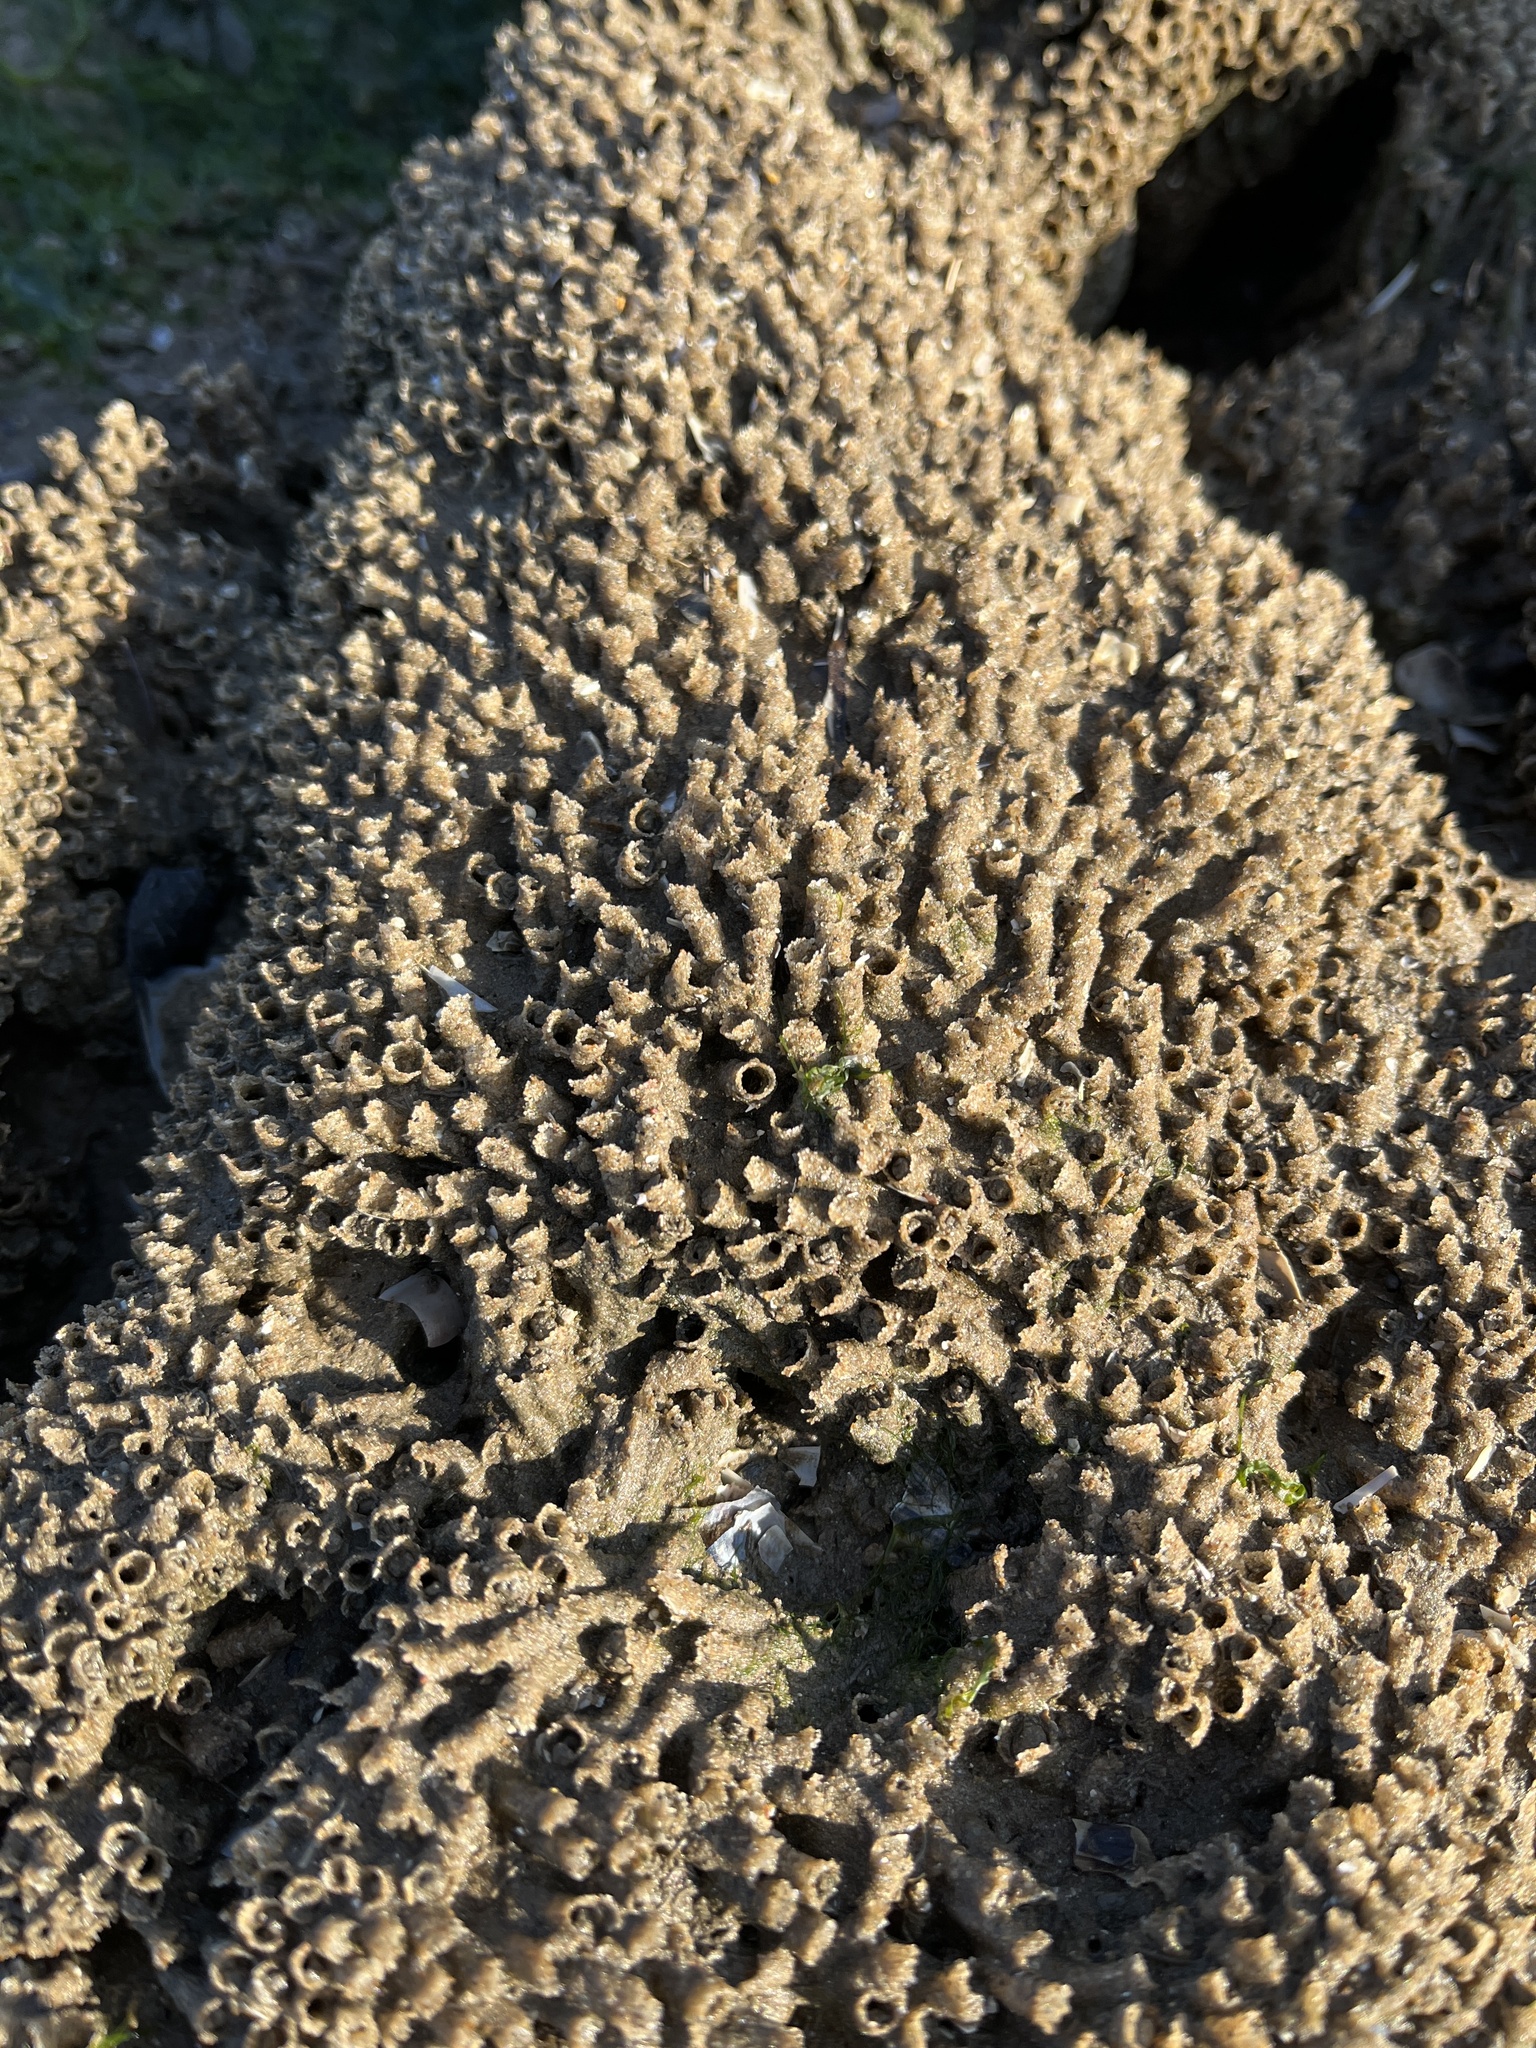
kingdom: Animalia
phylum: Annelida
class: Polychaeta
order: Sabellida
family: Sabellariidae
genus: Sabellaria
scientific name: Sabellaria alveolata
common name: Honeycomb worm
